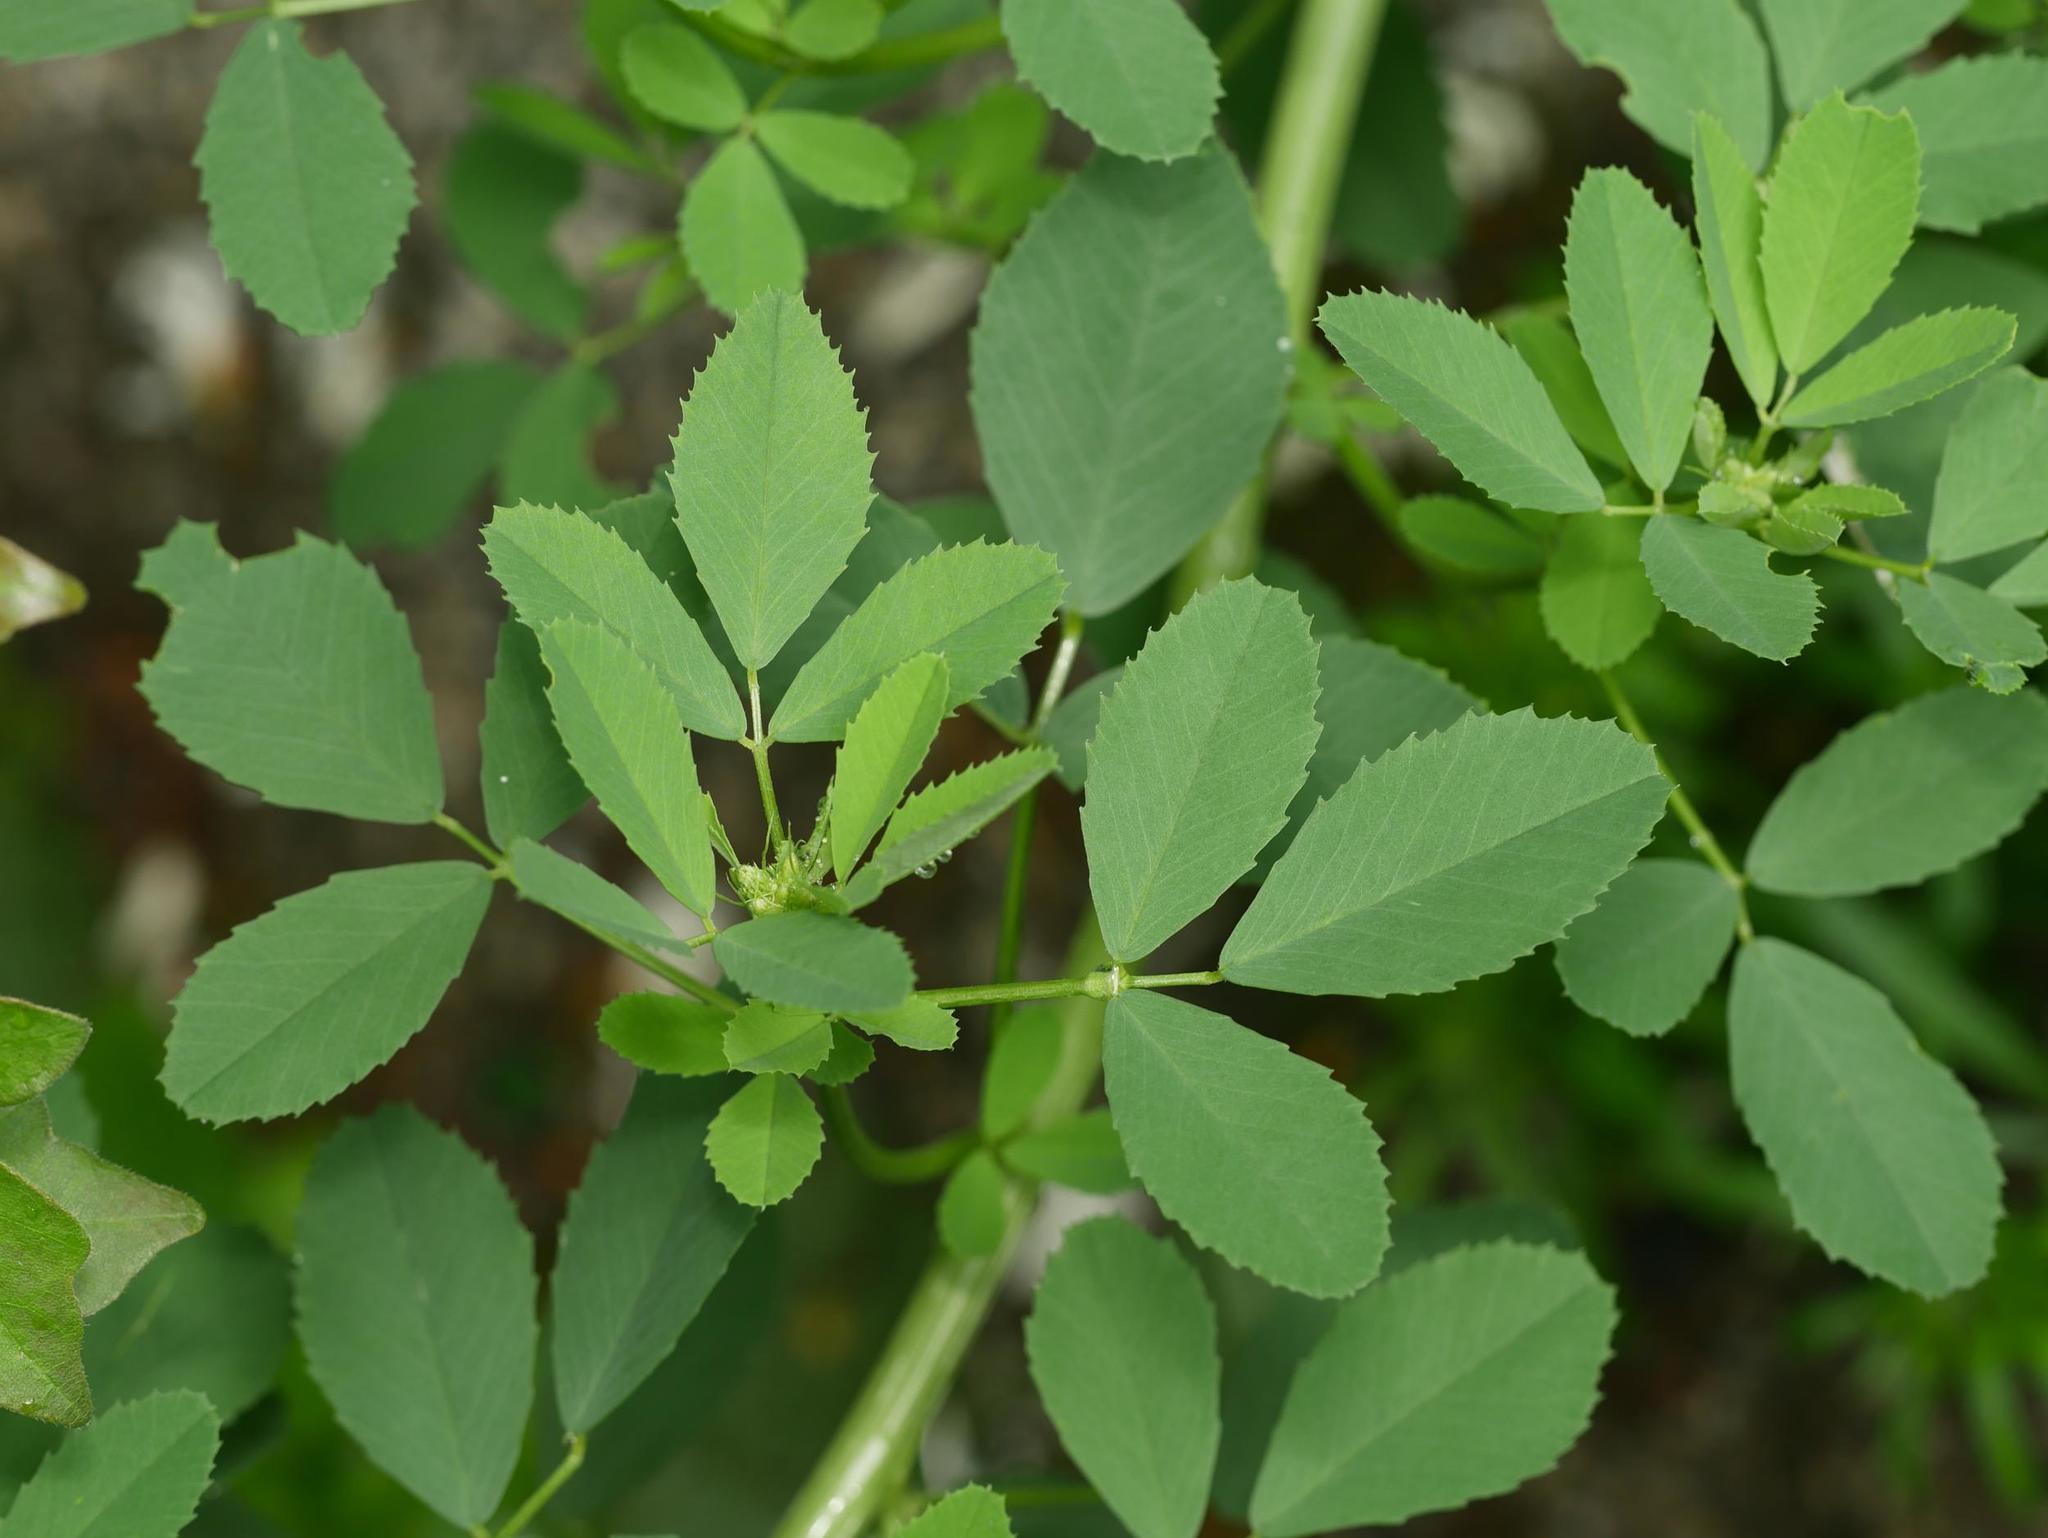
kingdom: Plantae
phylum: Tracheophyta
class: Magnoliopsida
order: Fabales
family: Fabaceae
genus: Melilotus
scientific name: Melilotus albus
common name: White melilot
